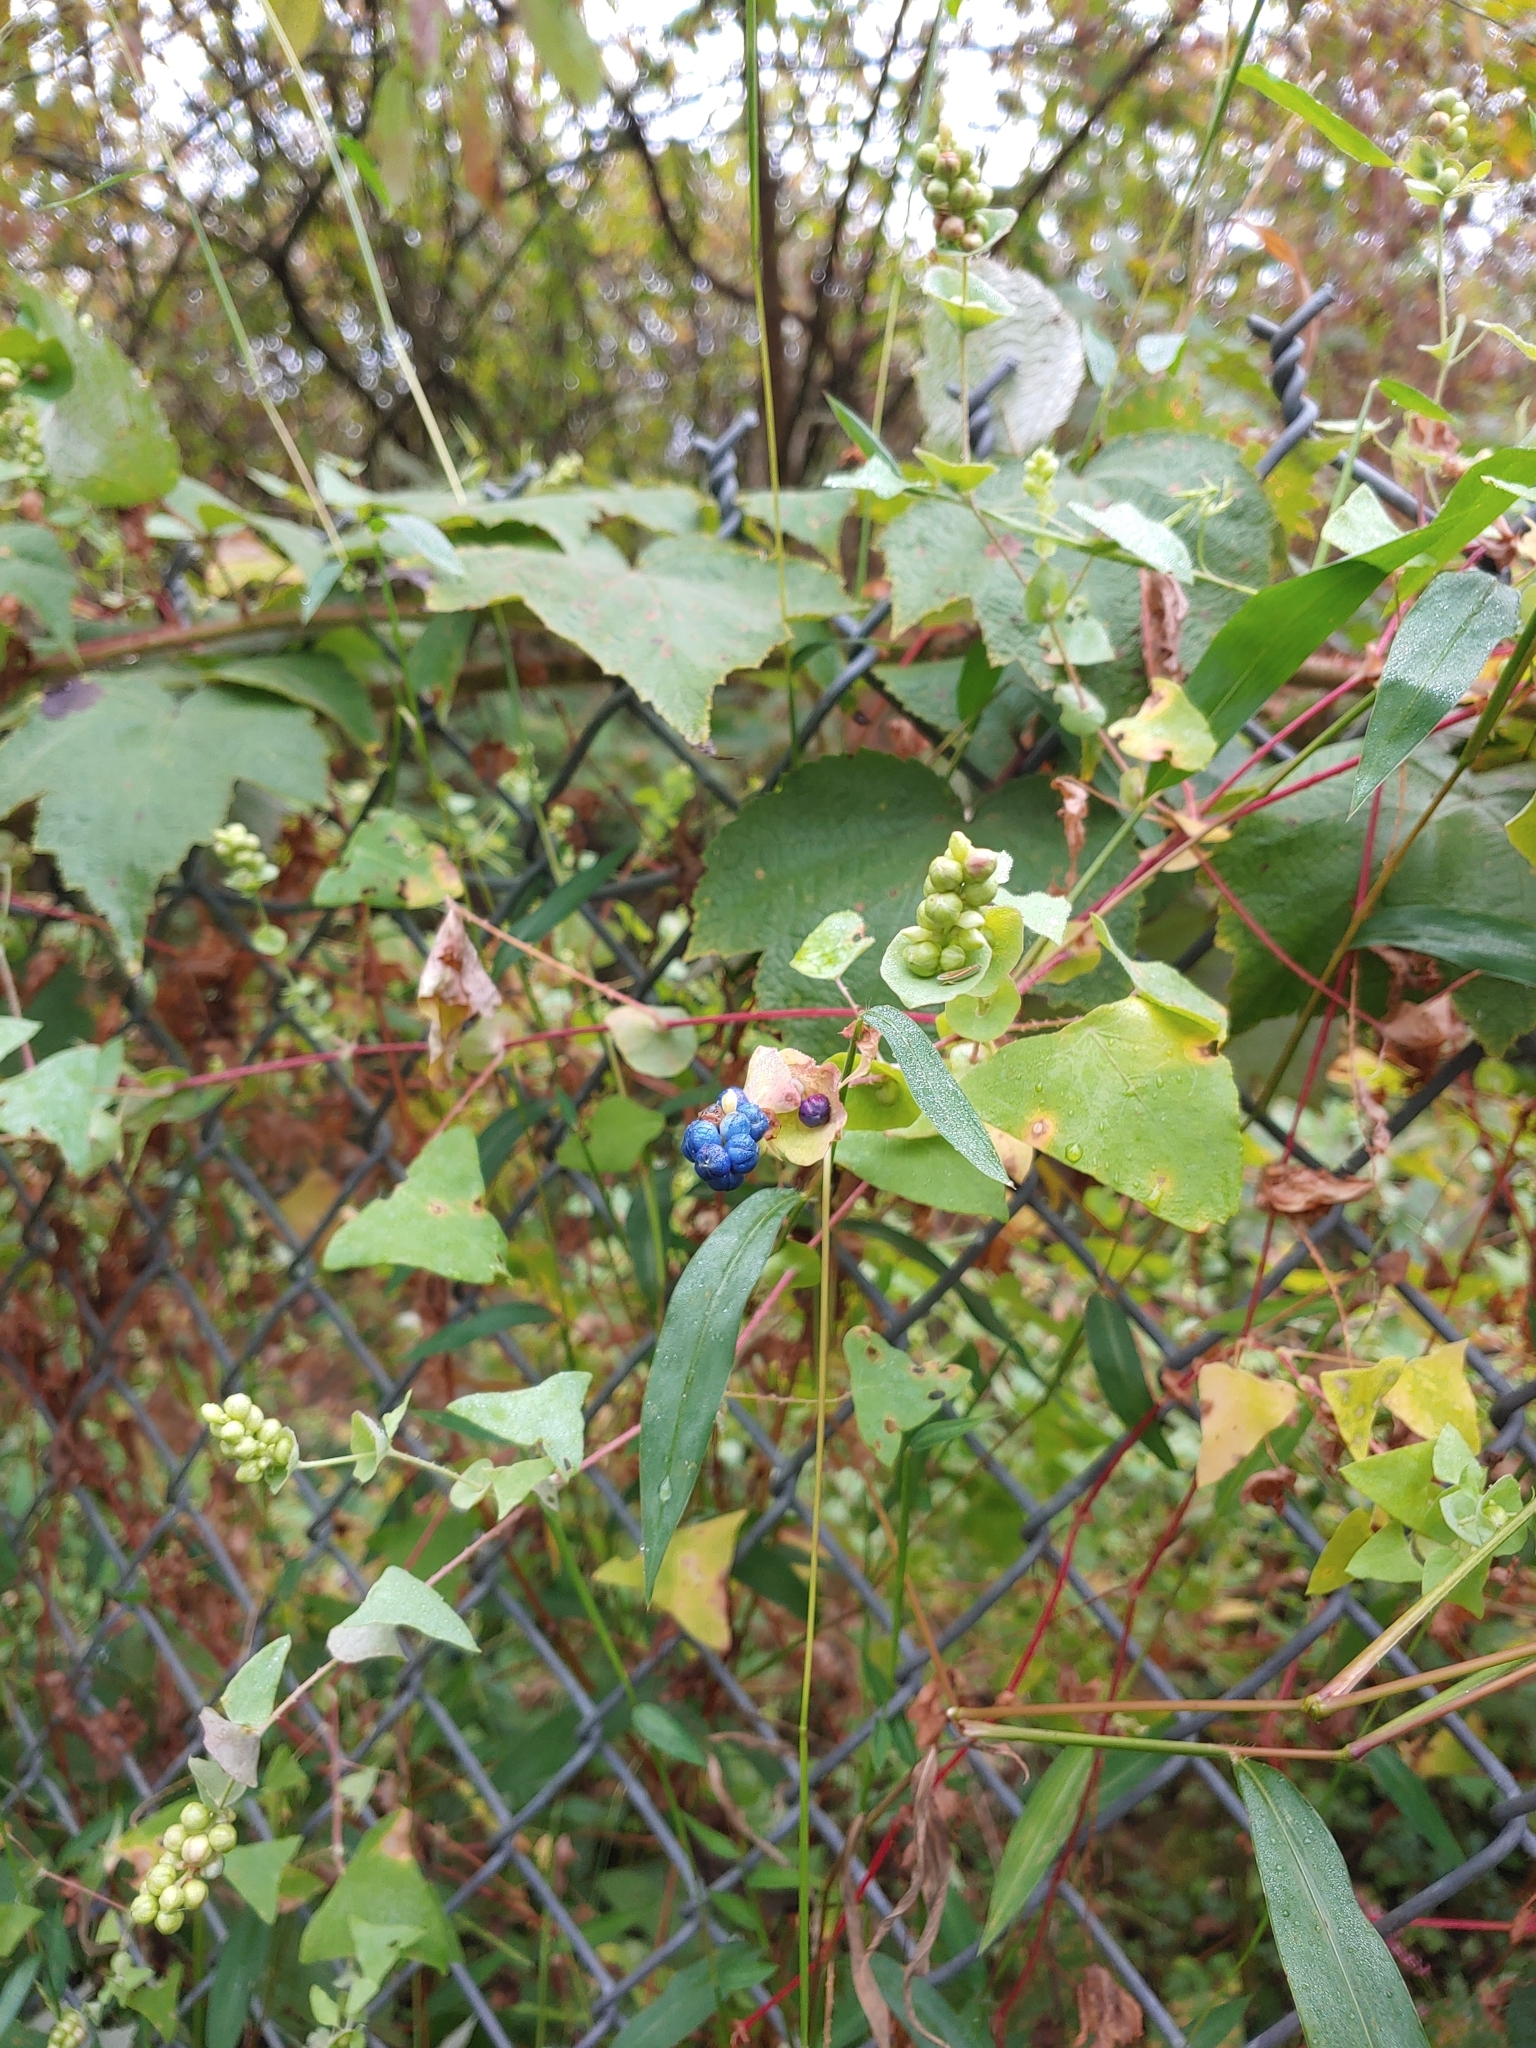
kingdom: Plantae
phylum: Tracheophyta
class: Magnoliopsida
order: Caryophyllales
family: Polygonaceae
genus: Persicaria
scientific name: Persicaria perfoliata
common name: Asiatic tearthumb
